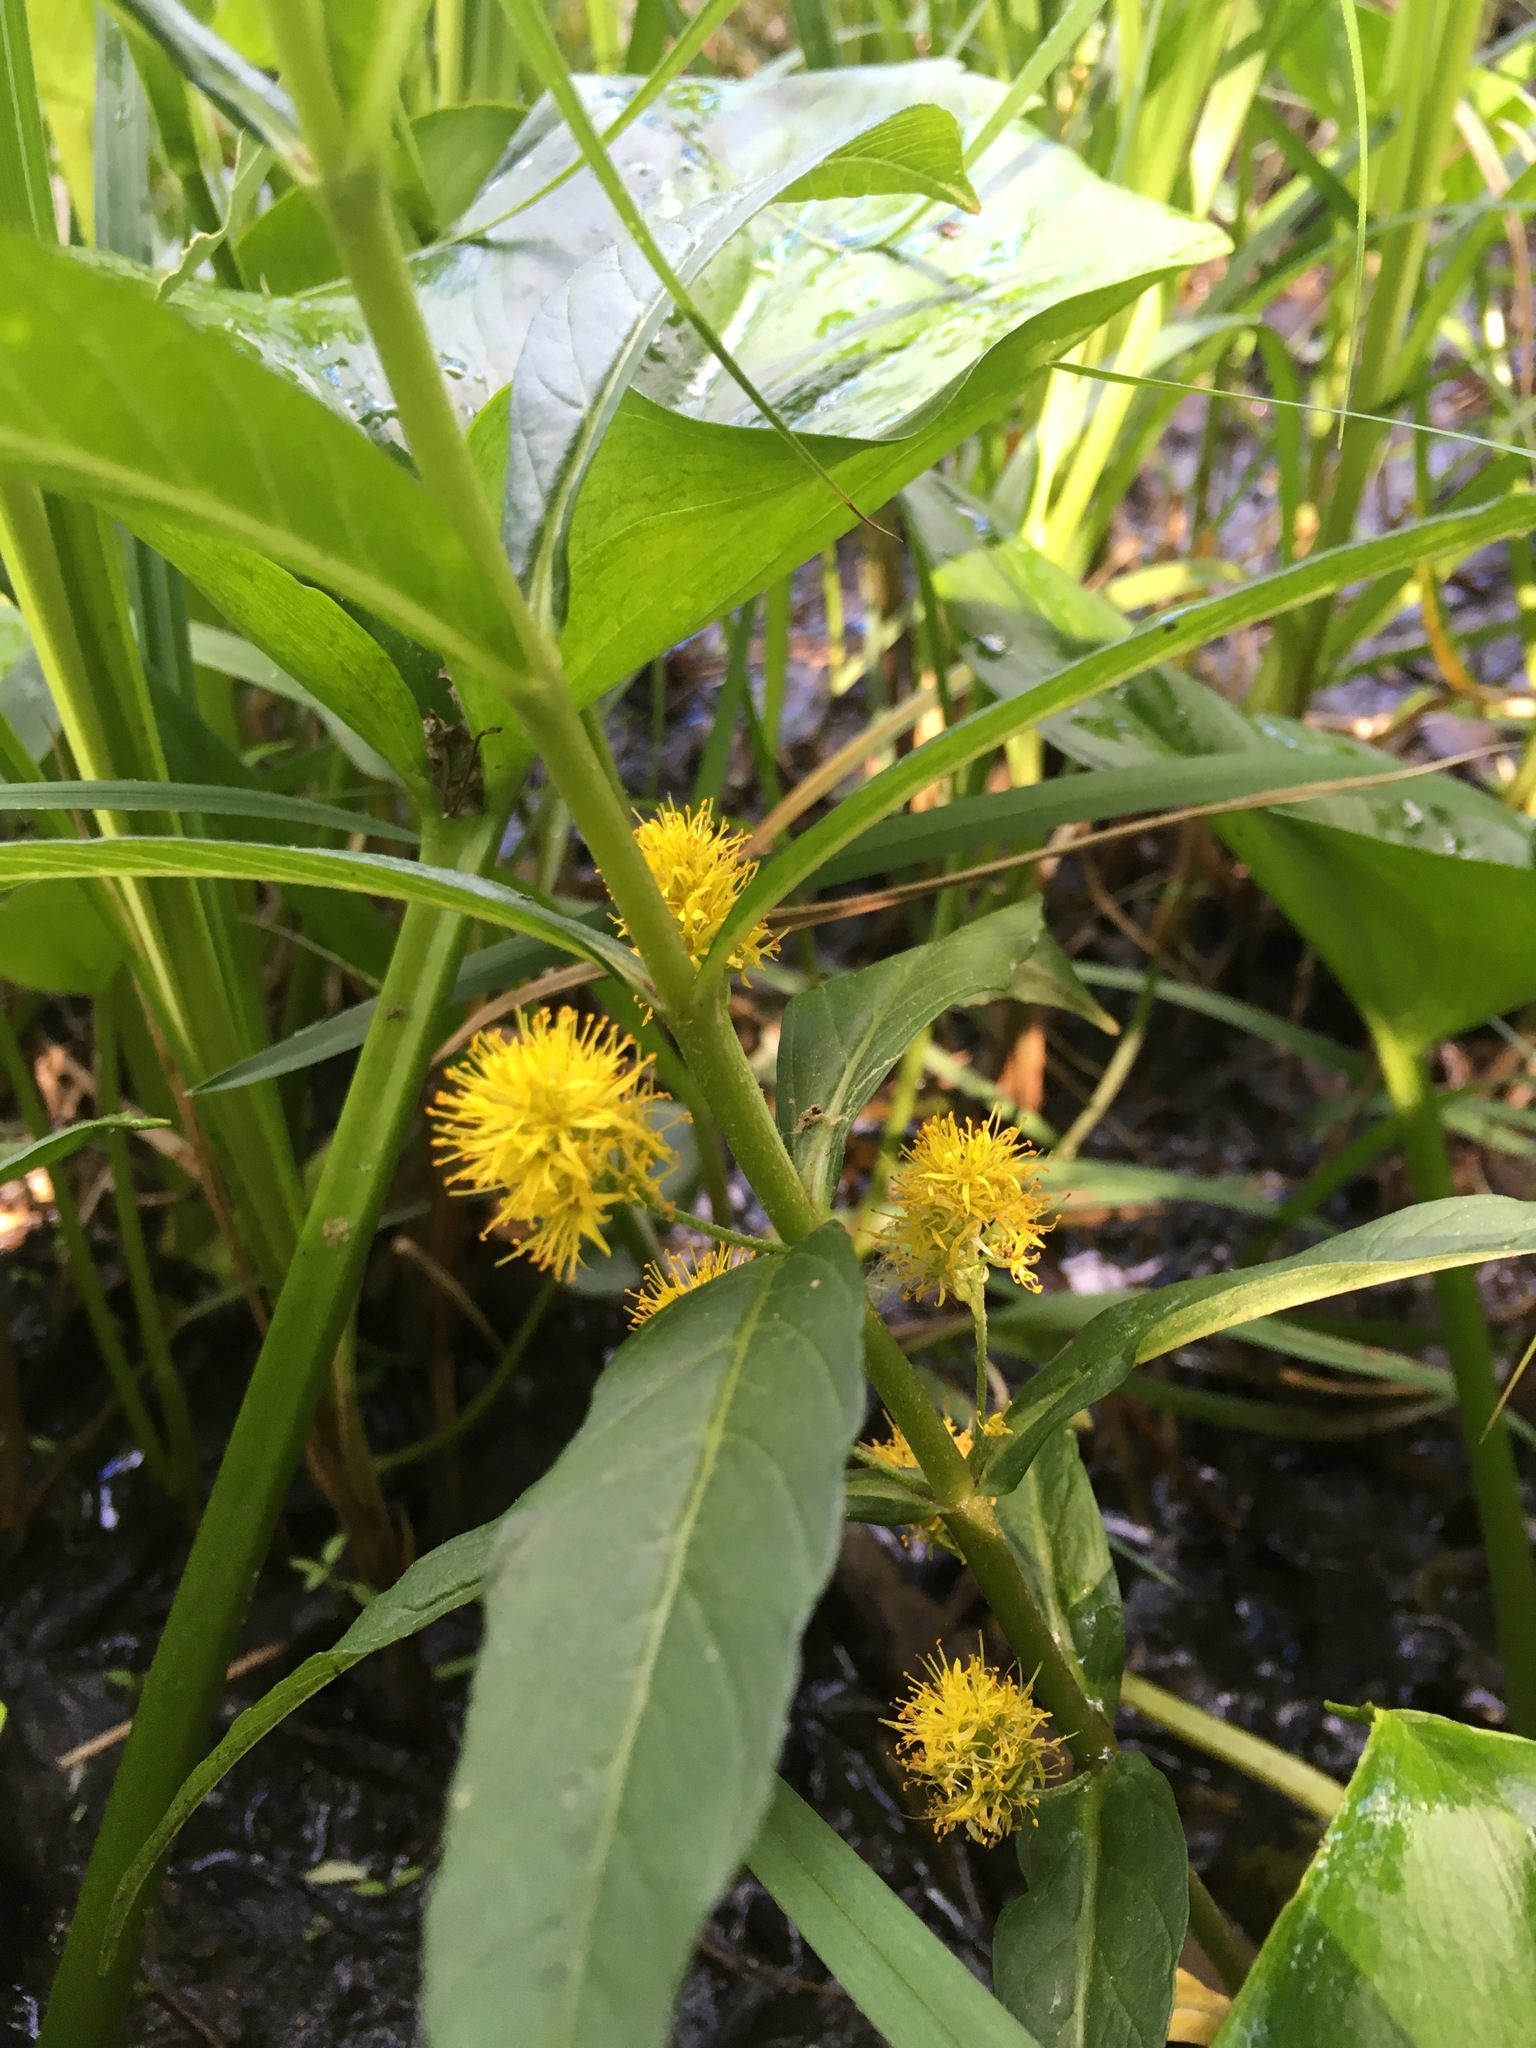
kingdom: Plantae
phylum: Tracheophyta
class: Magnoliopsida
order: Ericales
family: Primulaceae
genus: Lysimachia
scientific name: Lysimachia thyrsiflora
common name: Tufted loosestrife
